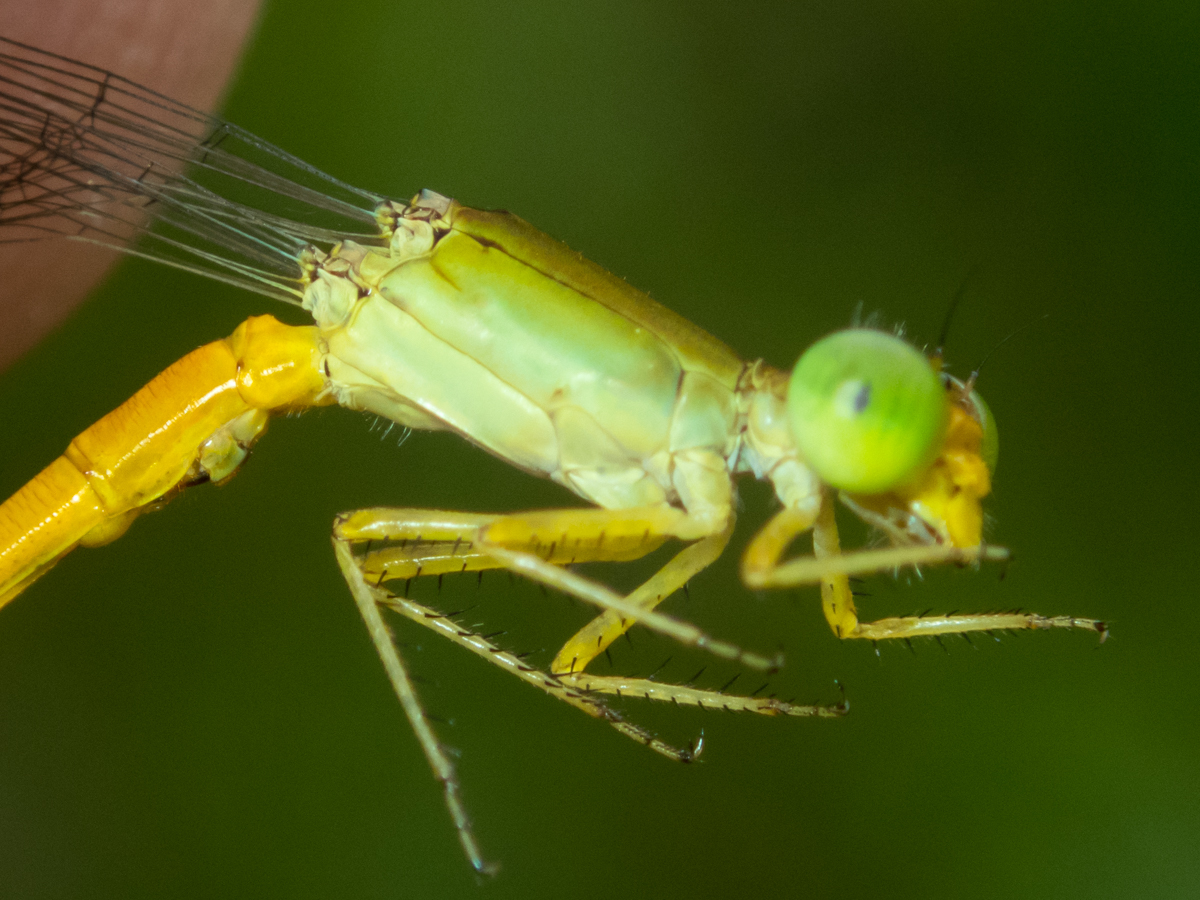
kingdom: Animalia
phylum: Arthropoda
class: Insecta
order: Odonata
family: Coenagrionidae
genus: Ceriagrion
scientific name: Ceriagrion calamineum
